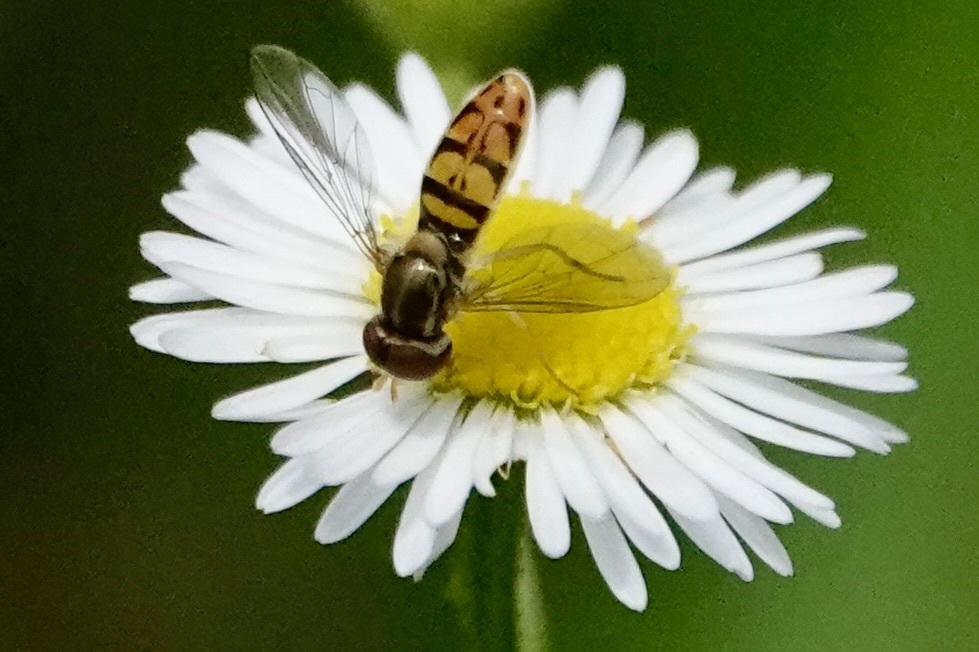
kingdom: Animalia
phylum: Arthropoda
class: Insecta
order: Diptera
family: Syrphidae
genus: Toxomerus
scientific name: Toxomerus marginatus
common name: Syrphid fly
